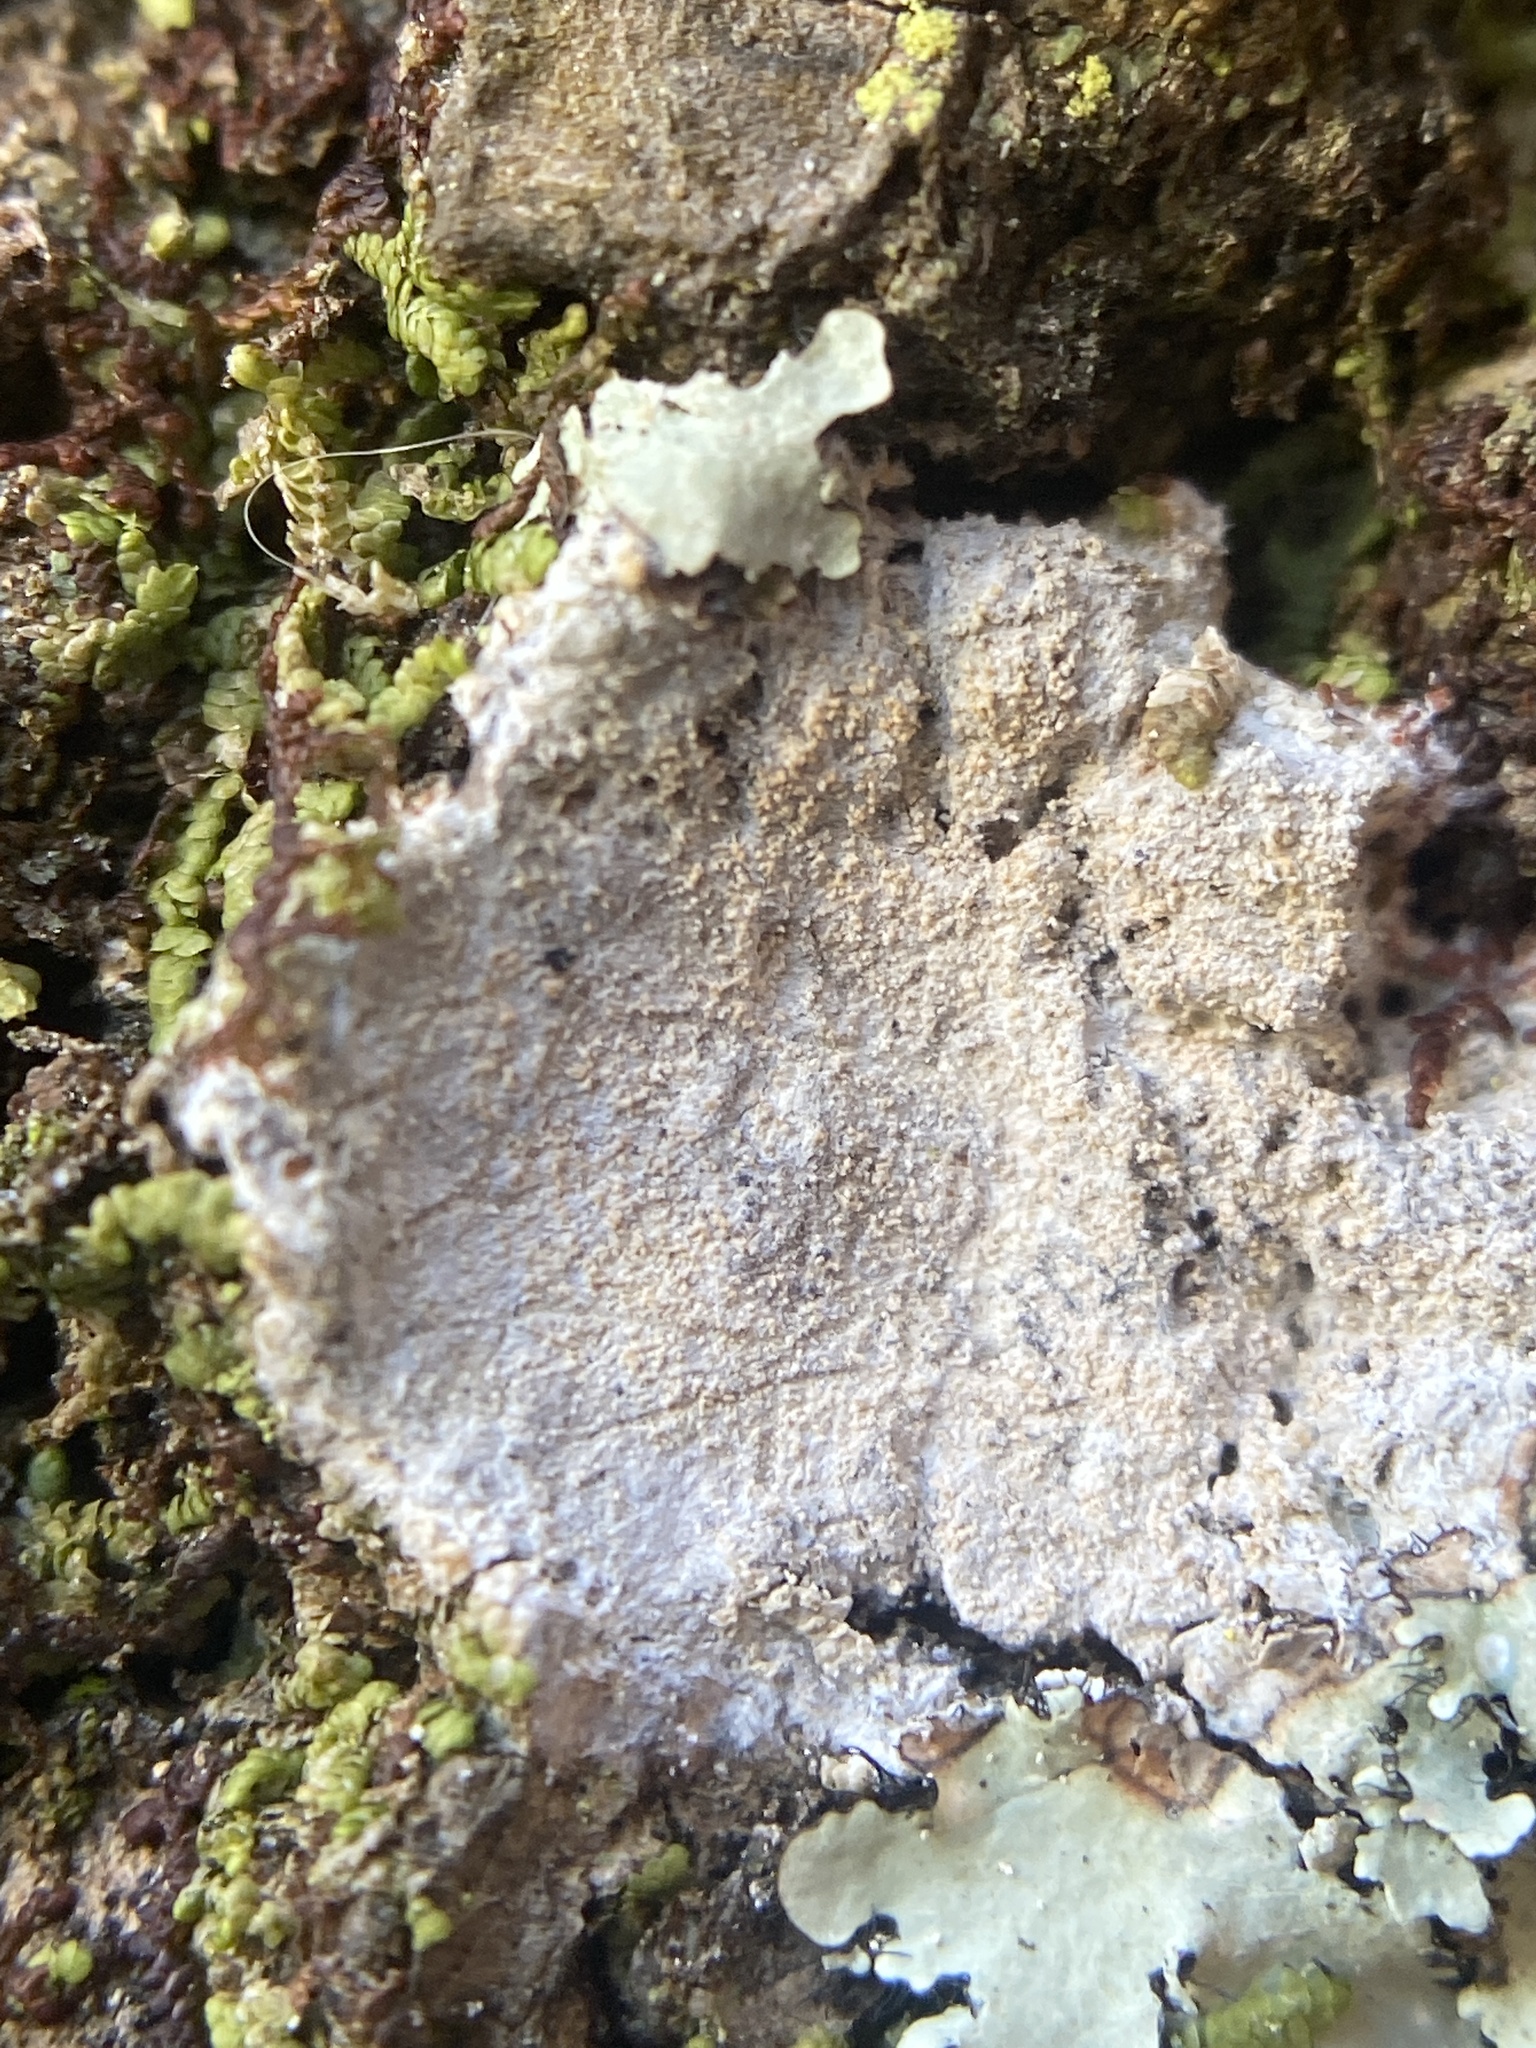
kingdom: Fungi
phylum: Ascomycota
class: Arthoniomycetes
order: Arthoniales
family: Arthoniaceae
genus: Herpothallon
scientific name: Herpothallon rubroechinatum
